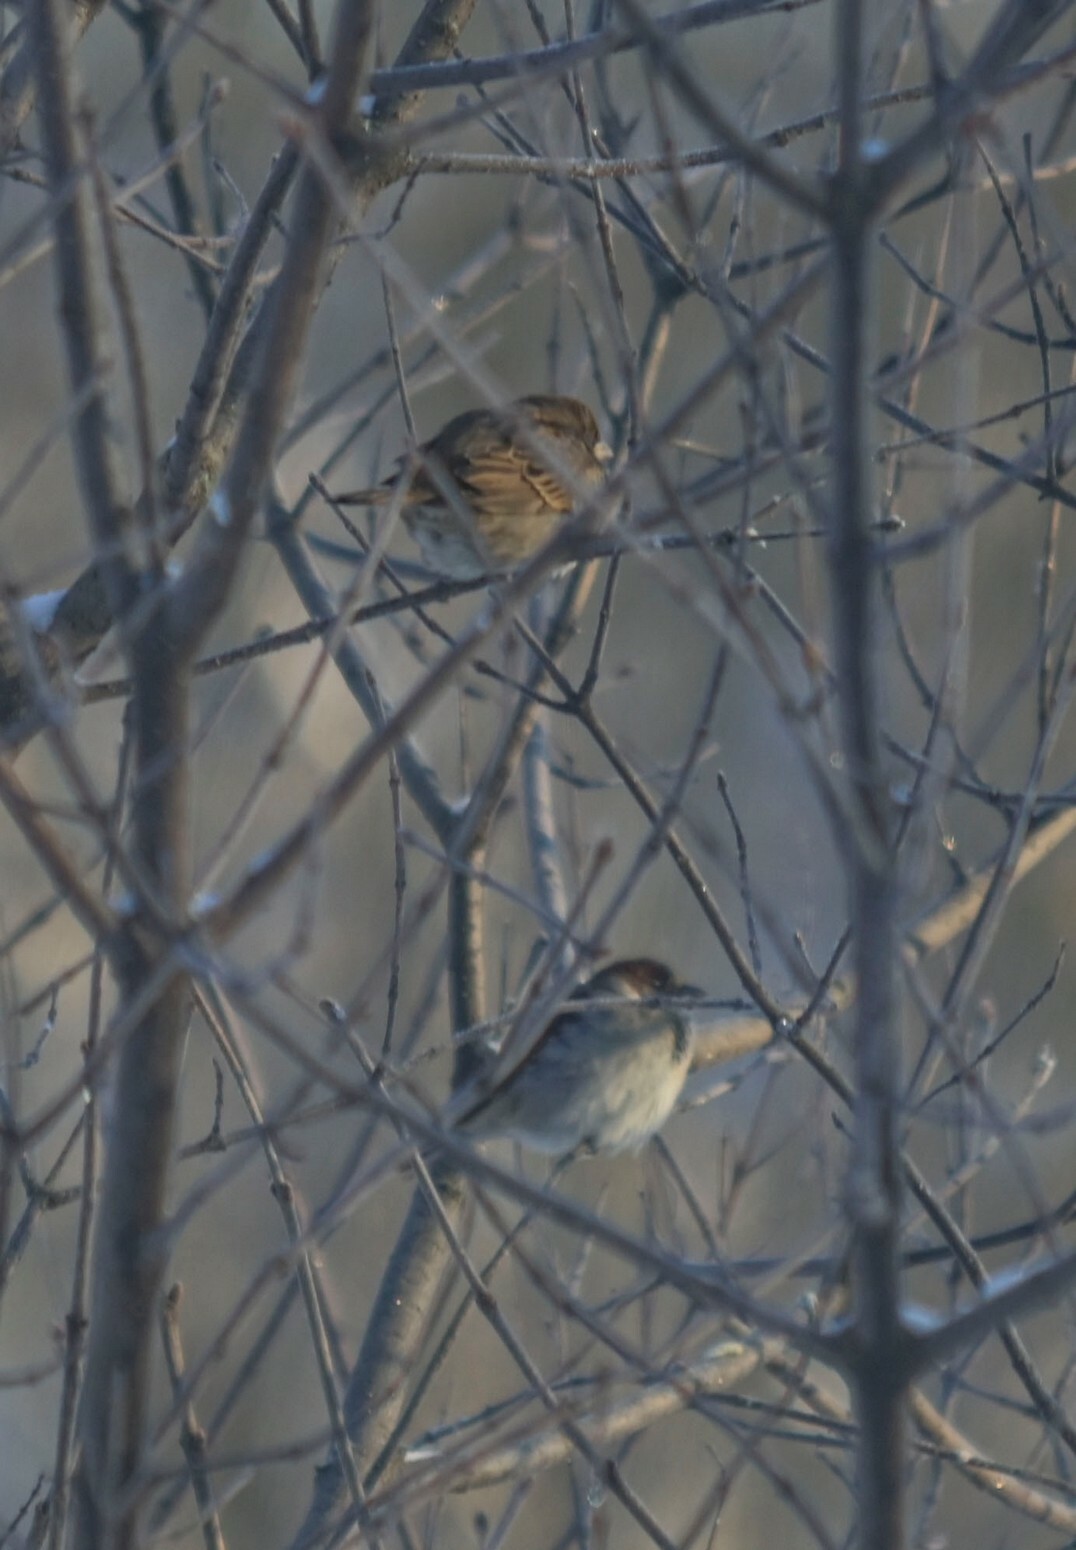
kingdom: Animalia
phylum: Chordata
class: Aves
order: Passeriformes
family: Passeridae
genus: Passer
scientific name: Passer domesticus
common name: House sparrow
